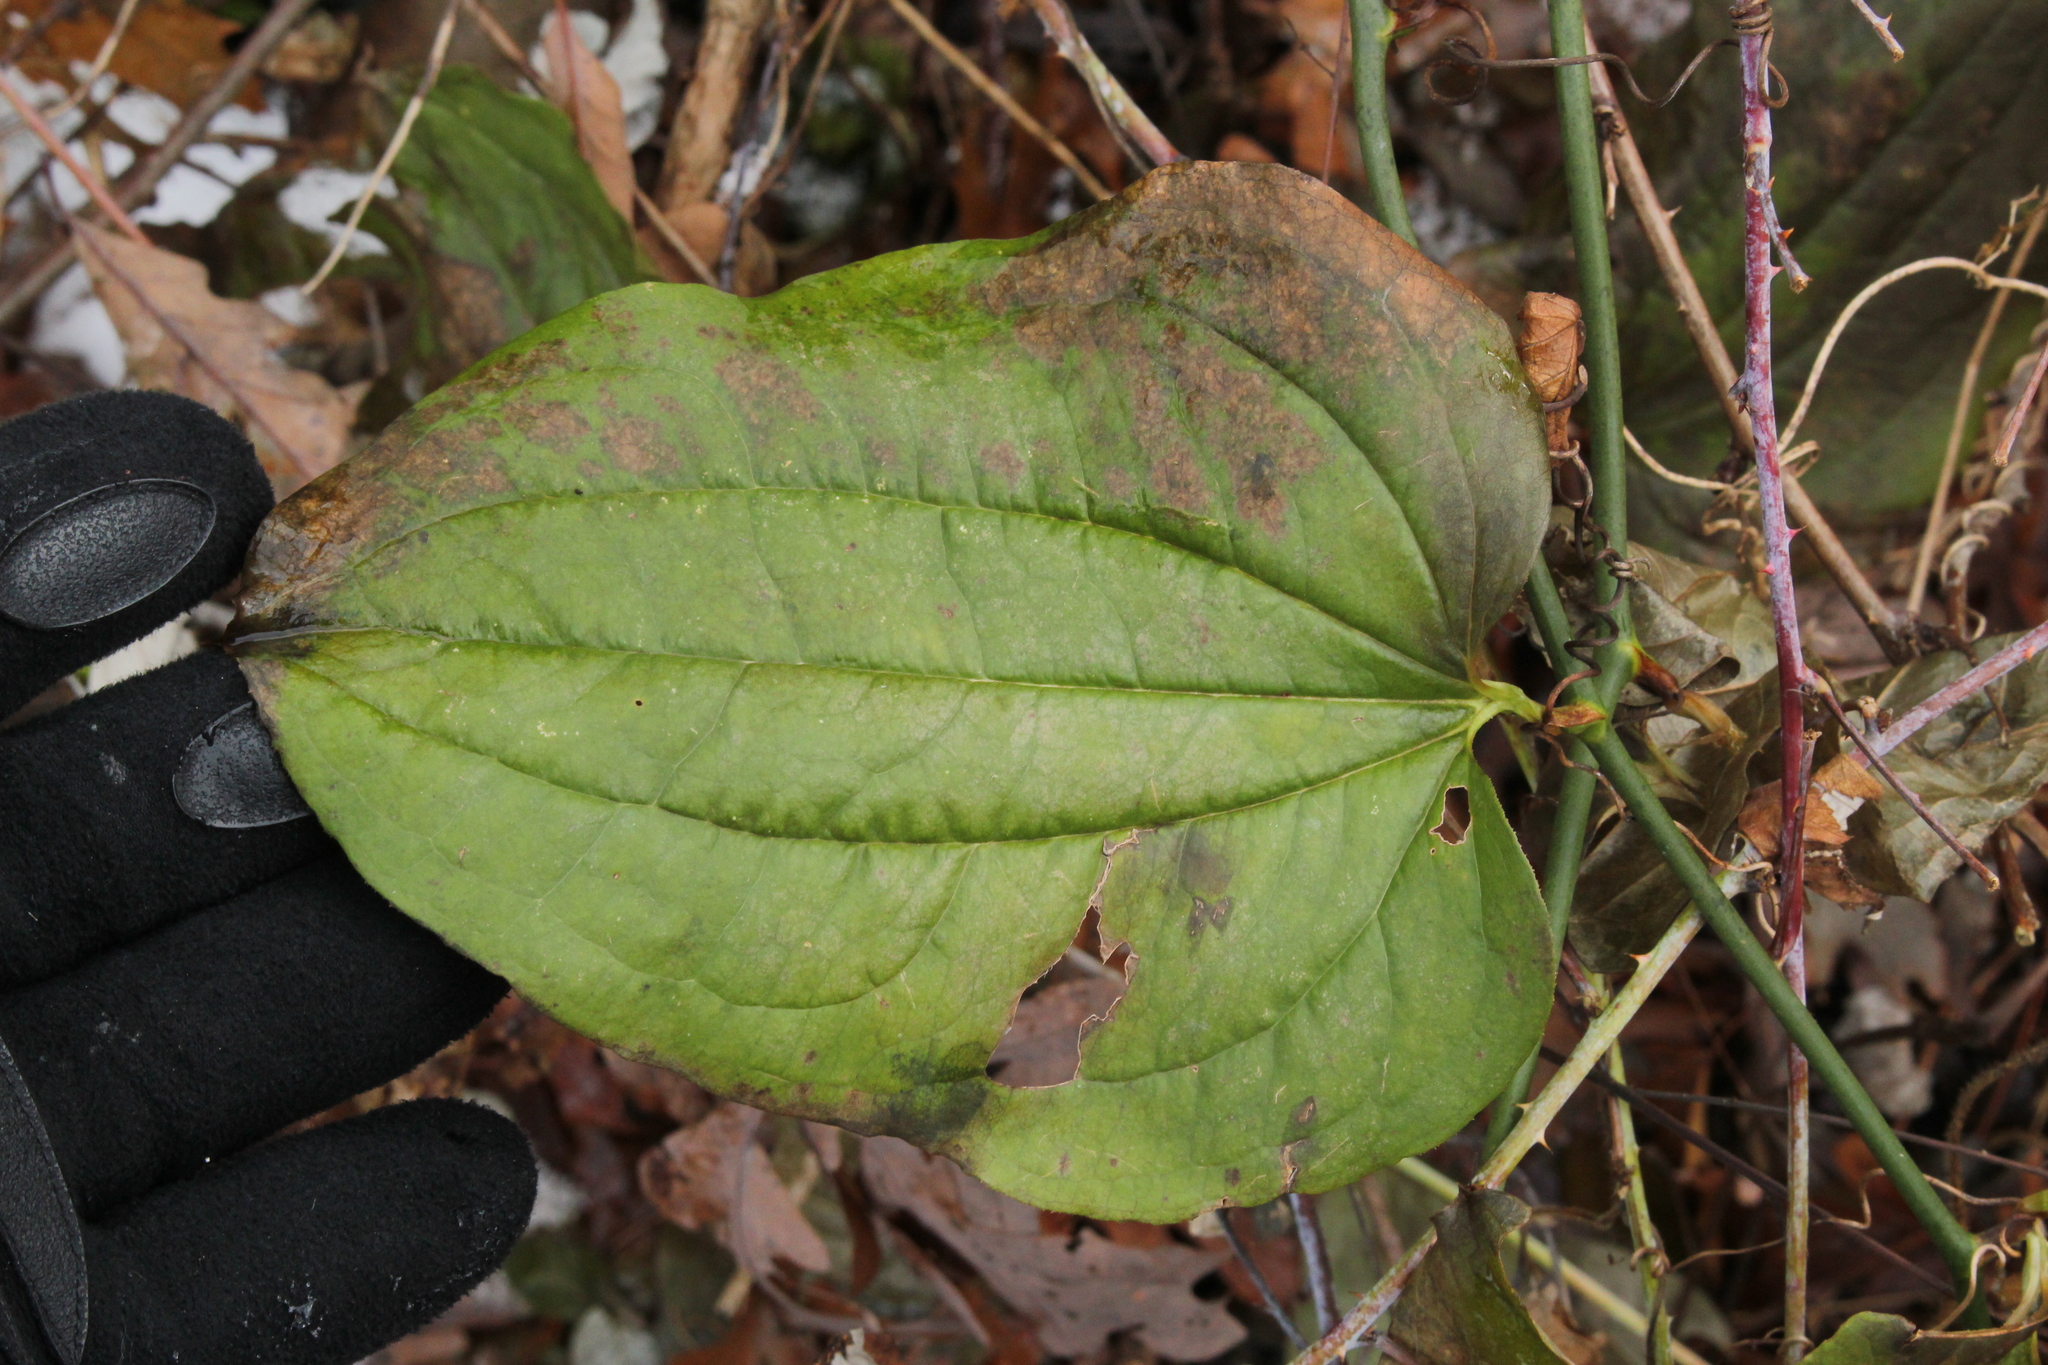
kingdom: Plantae
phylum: Tracheophyta
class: Liliopsida
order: Liliales
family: Smilacaceae
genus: Smilax
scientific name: Smilax tamnoides
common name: Hellfetter
